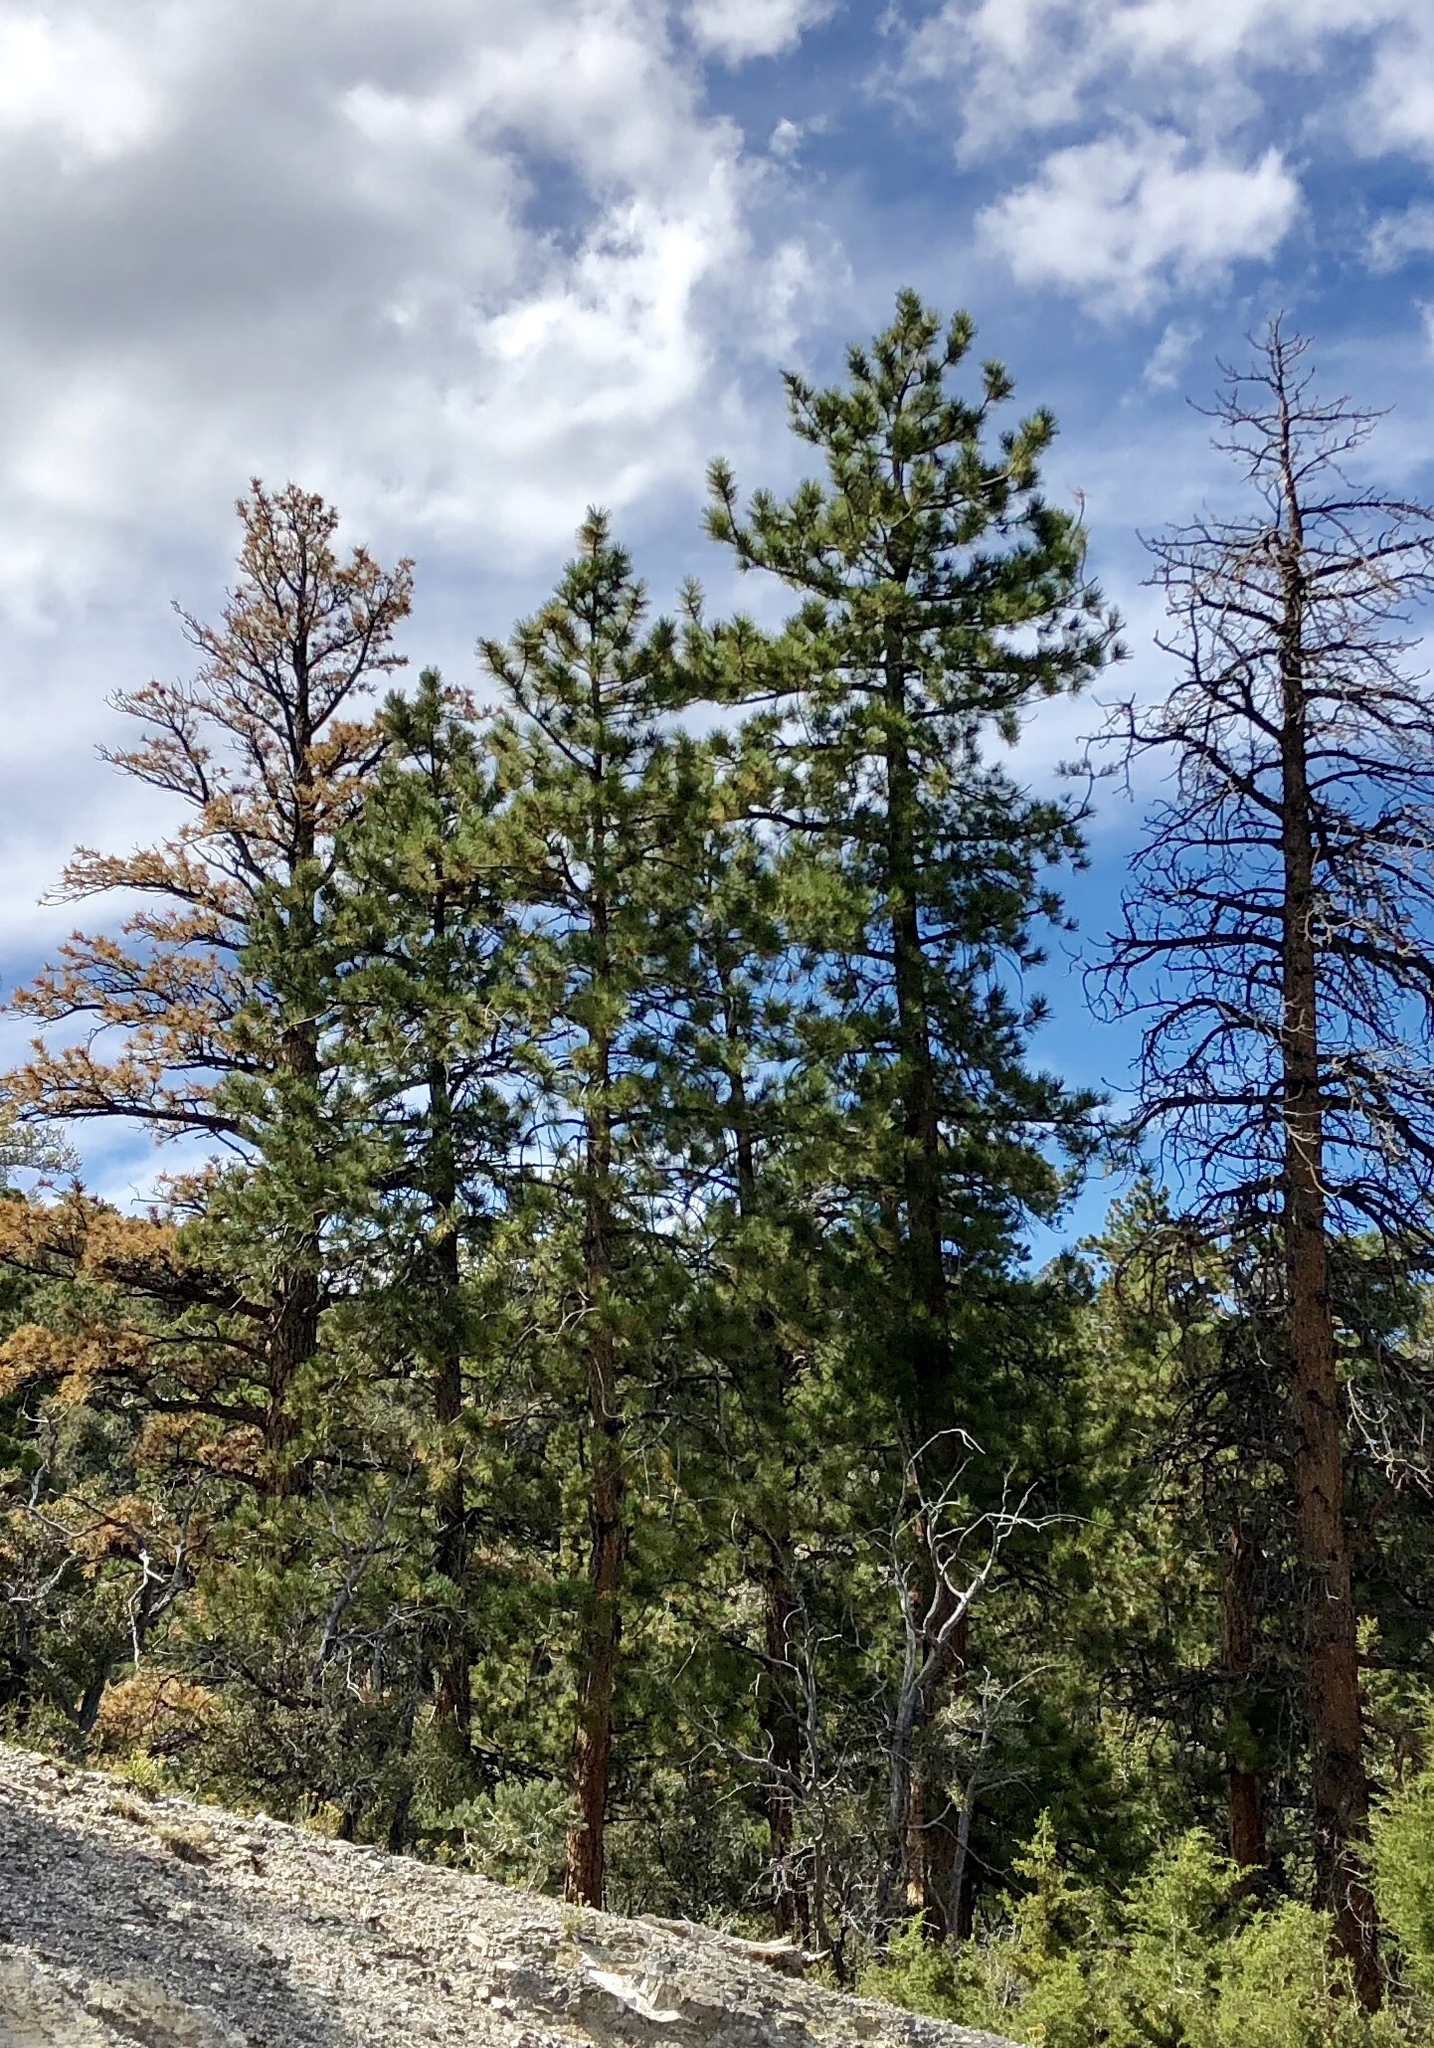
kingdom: Plantae
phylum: Tracheophyta
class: Pinopsida
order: Pinales
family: Pinaceae
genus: Pinus
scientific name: Pinus ponderosa
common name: Western yellow-pine
